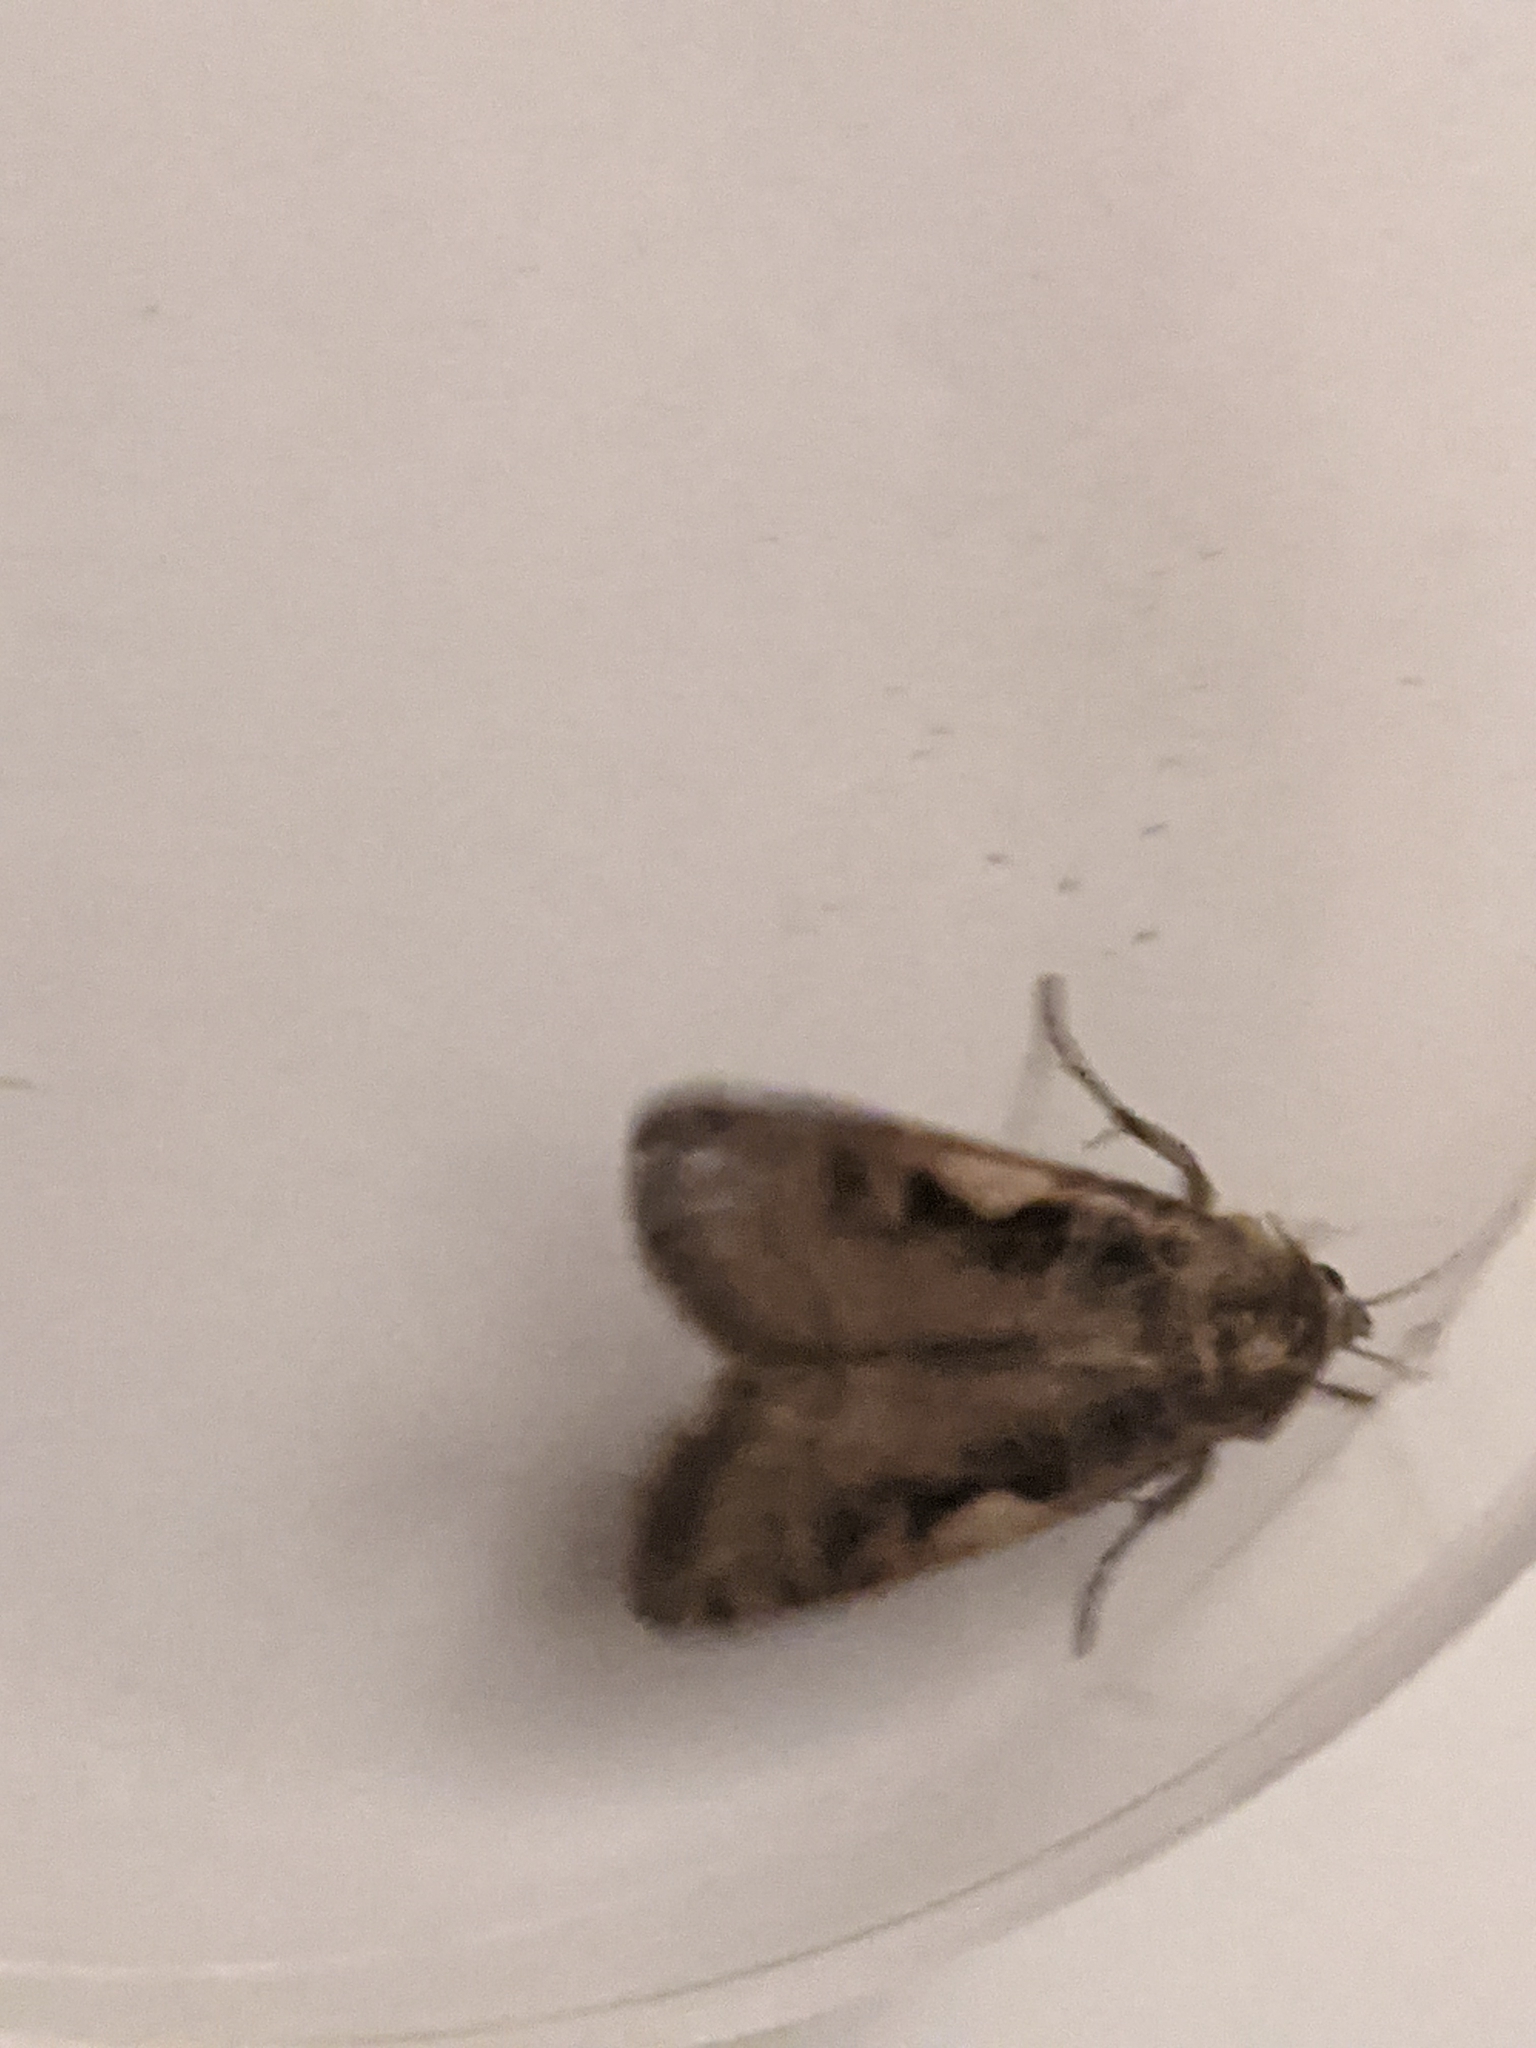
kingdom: Animalia
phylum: Arthropoda
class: Insecta
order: Lepidoptera
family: Noctuidae
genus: Xestia
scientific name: Xestia c-nigrum
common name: Setaceous hebrew character
